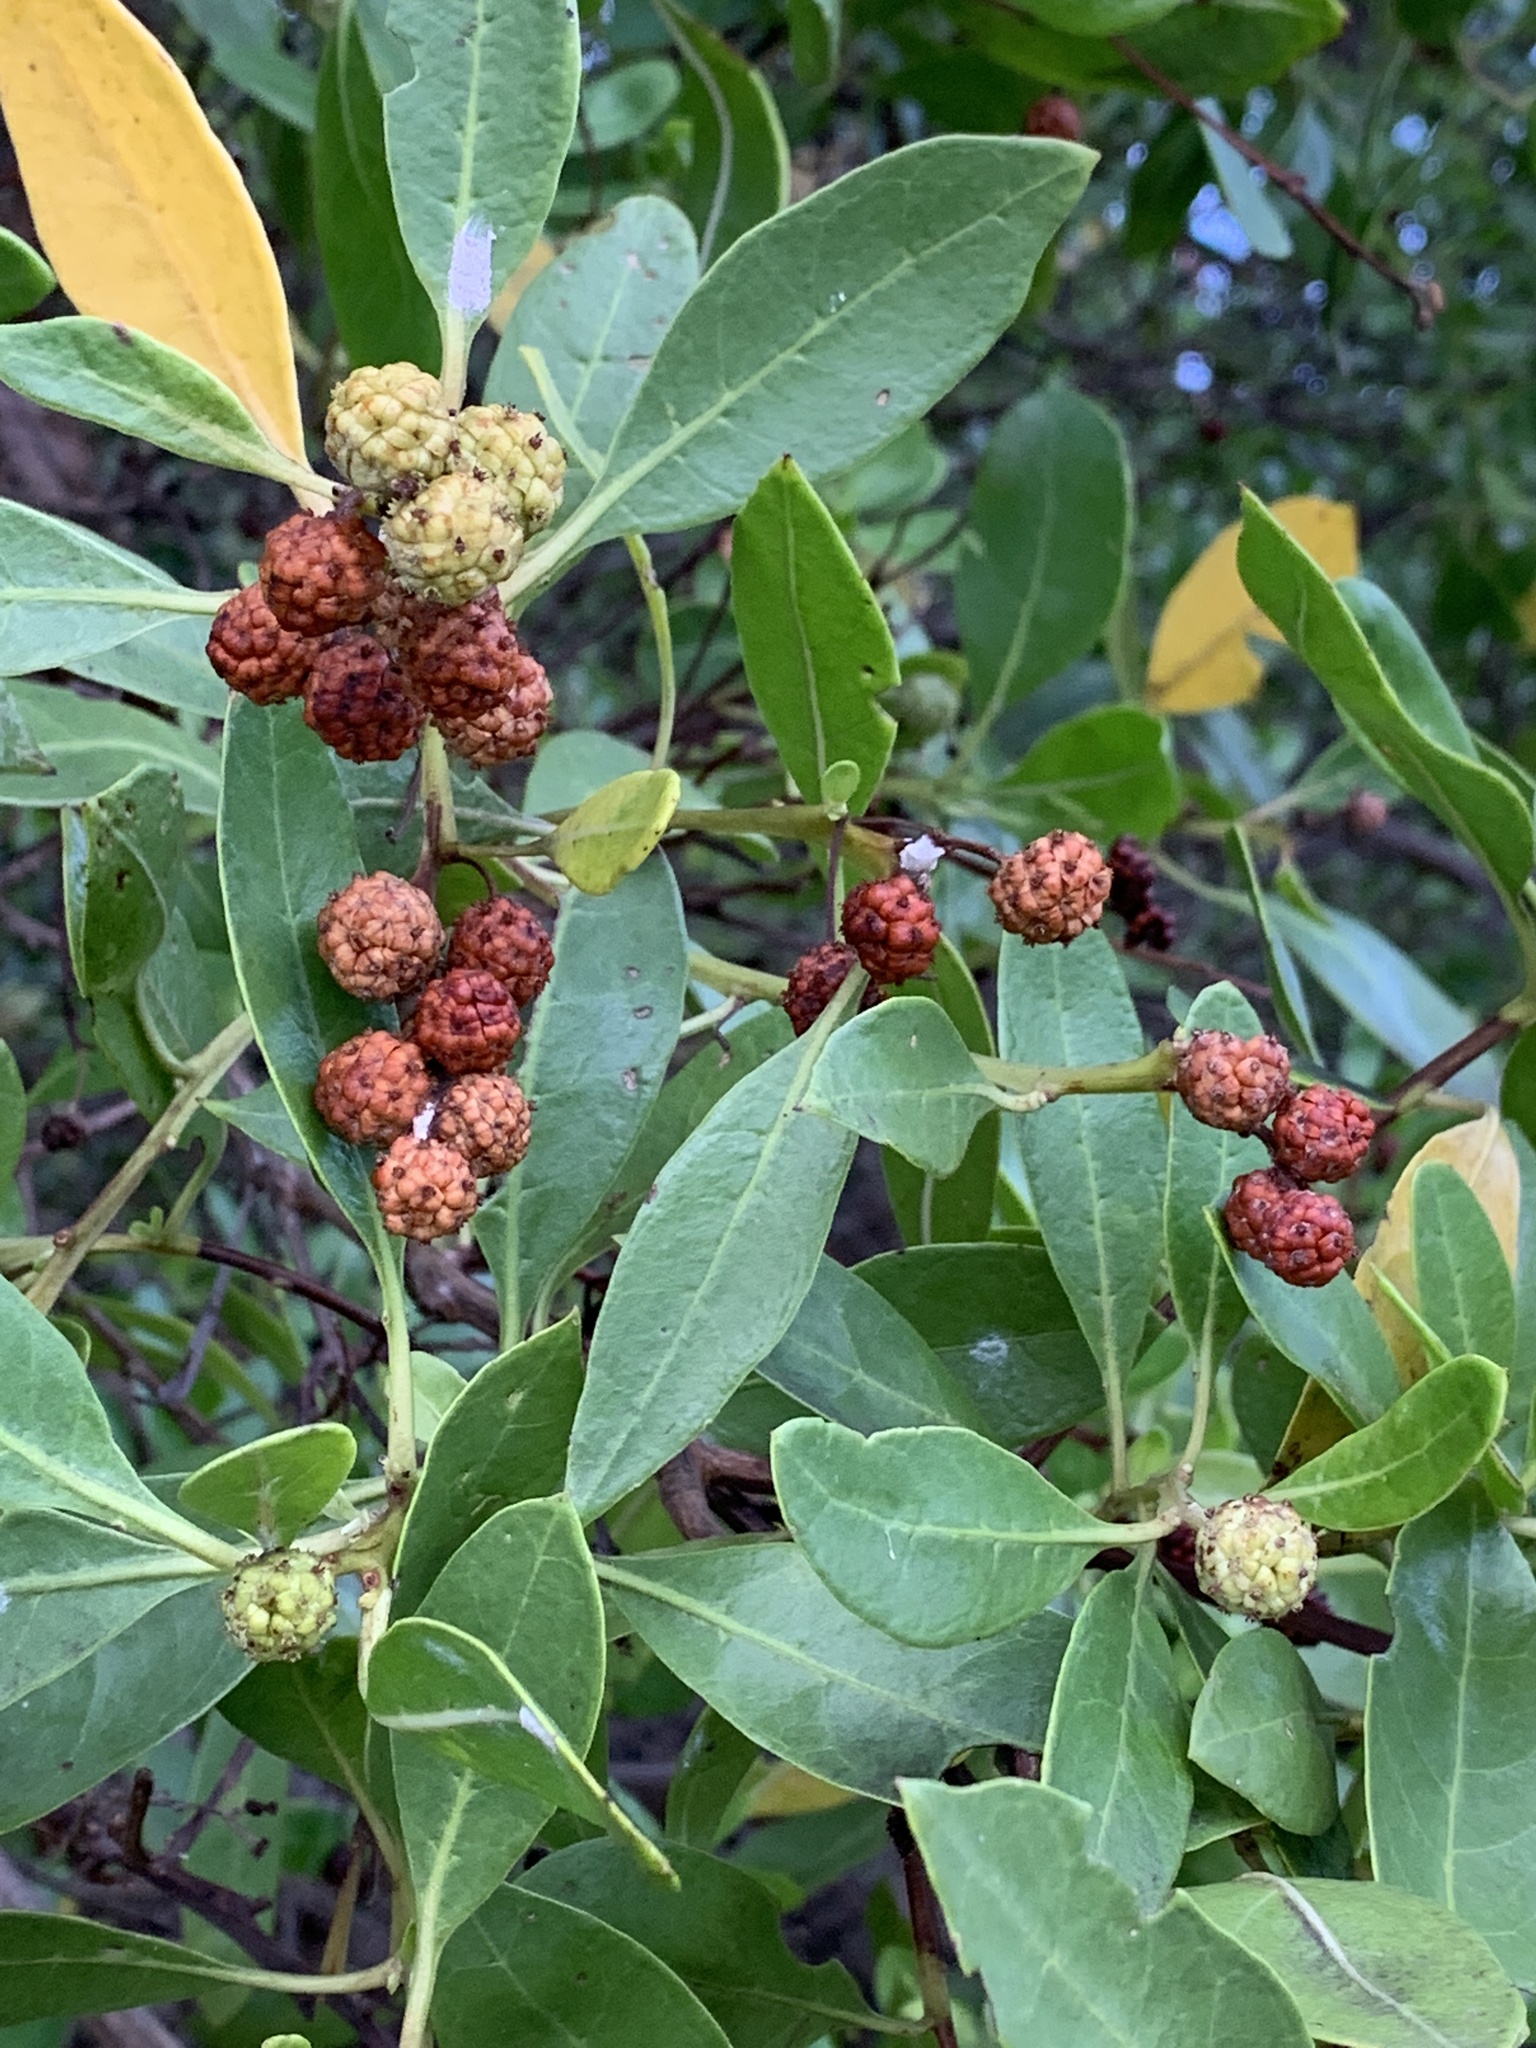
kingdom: Plantae
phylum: Tracheophyta
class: Magnoliopsida
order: Myrtales
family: Combretaceae
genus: Conocarpus
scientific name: Conocarpus erectus
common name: Button mangrove
